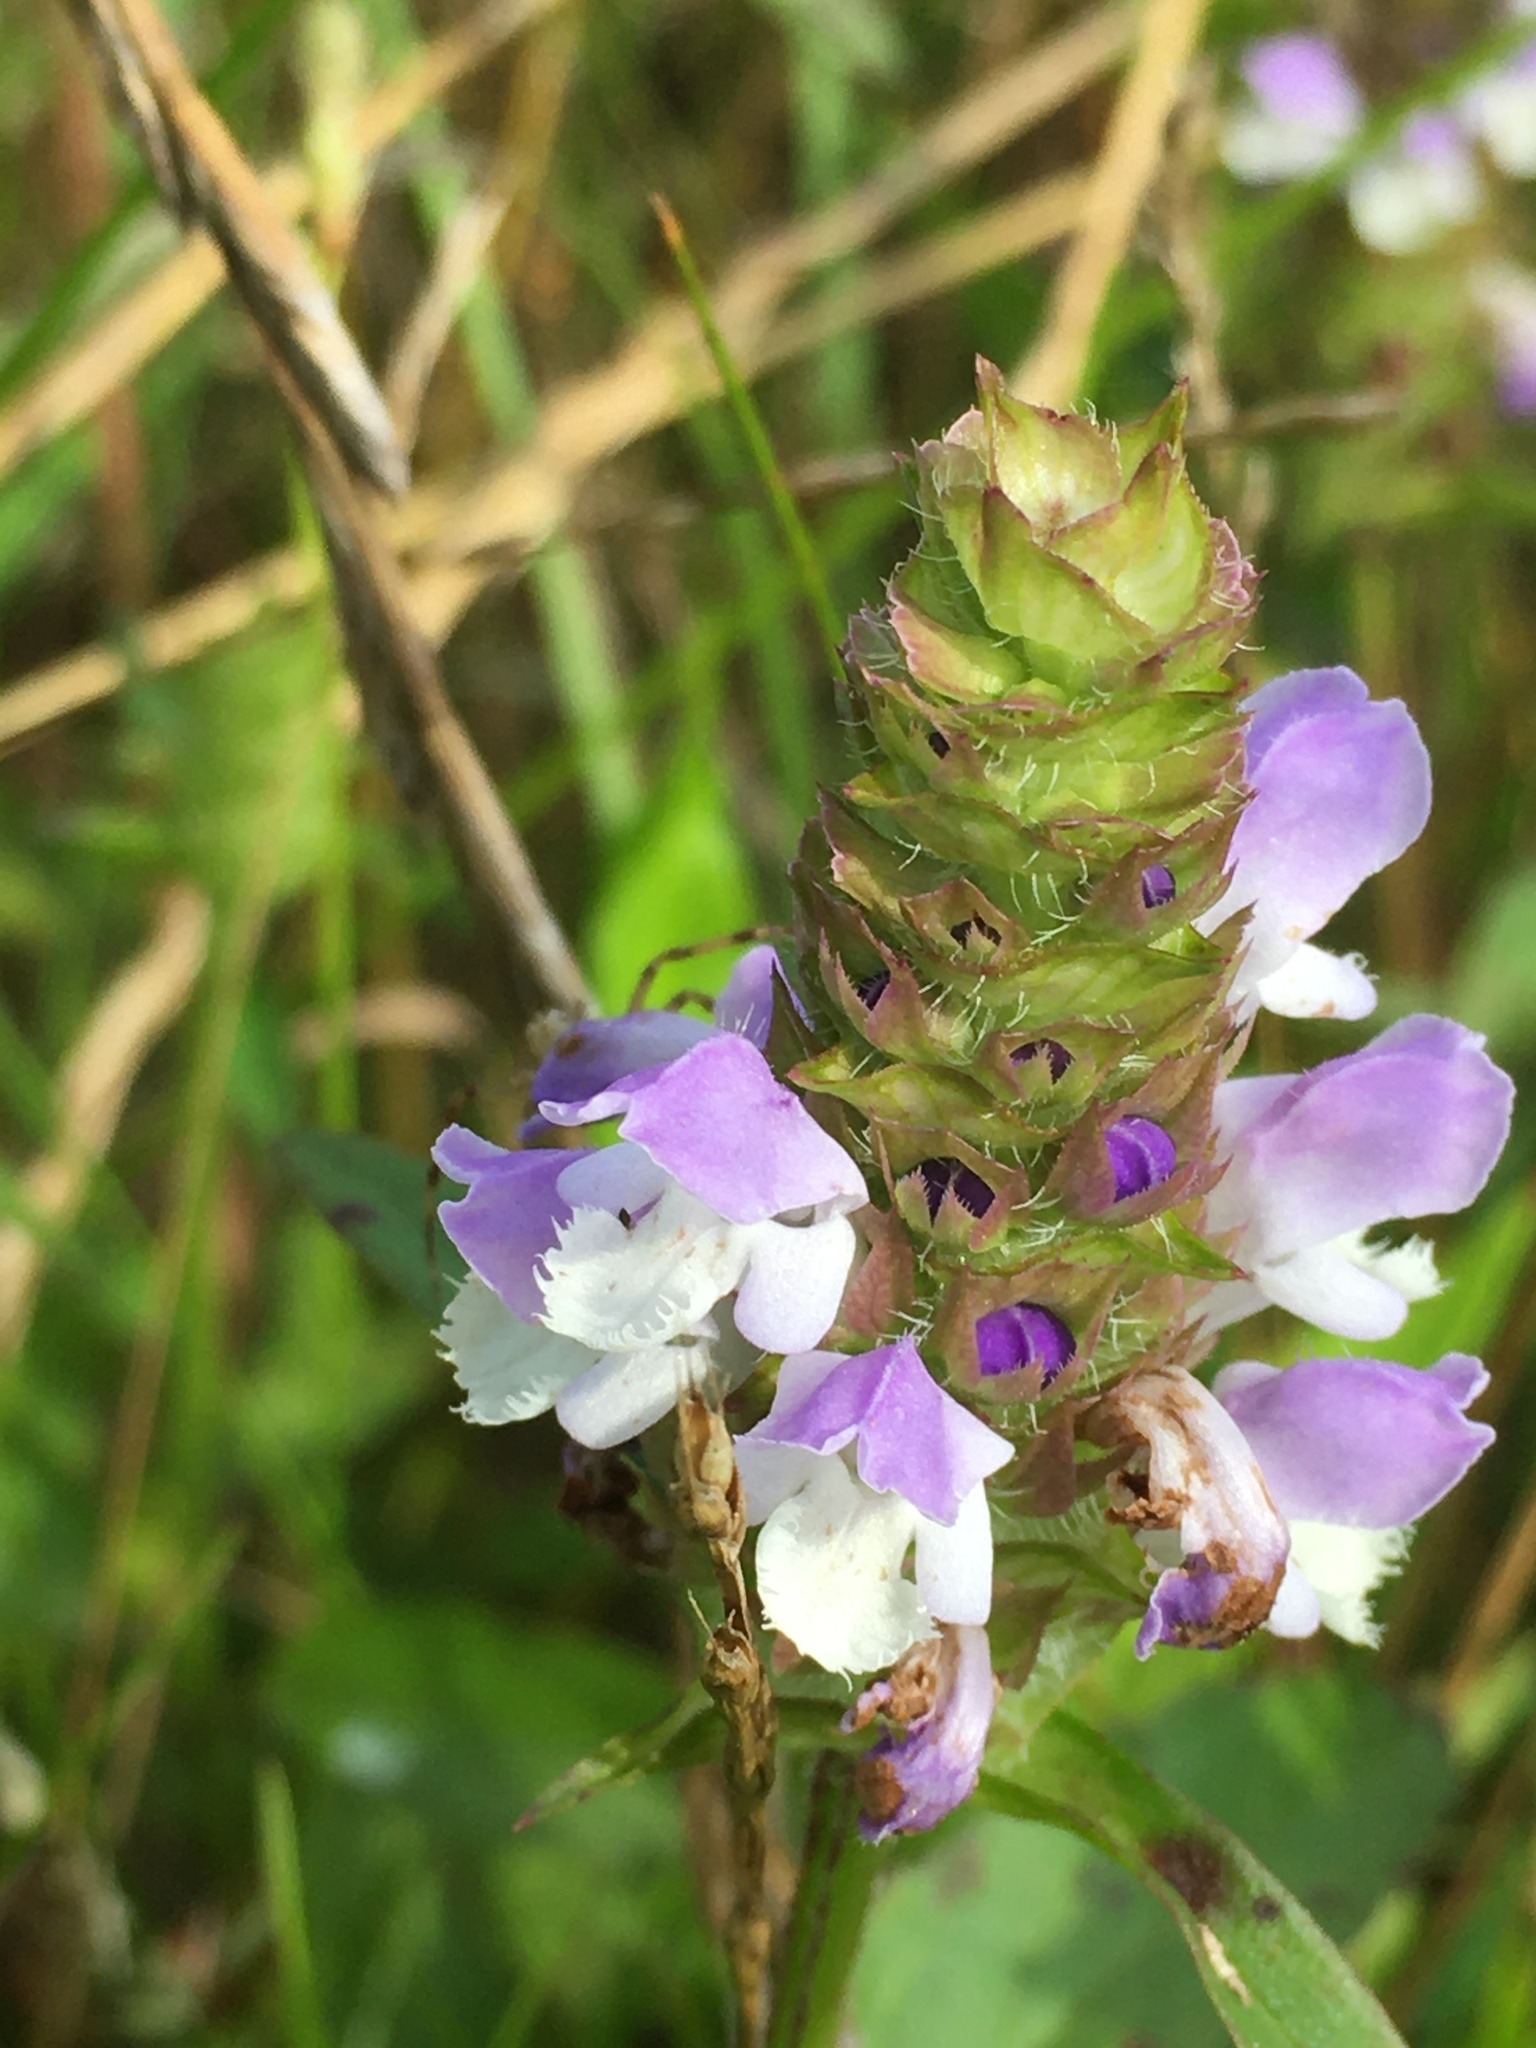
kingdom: Plantae
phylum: Tracheophyta
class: Magnoliopsida
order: Lamiales
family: Lamiaceae
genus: Prunella
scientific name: Prunella vulgaris
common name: Heal-all
